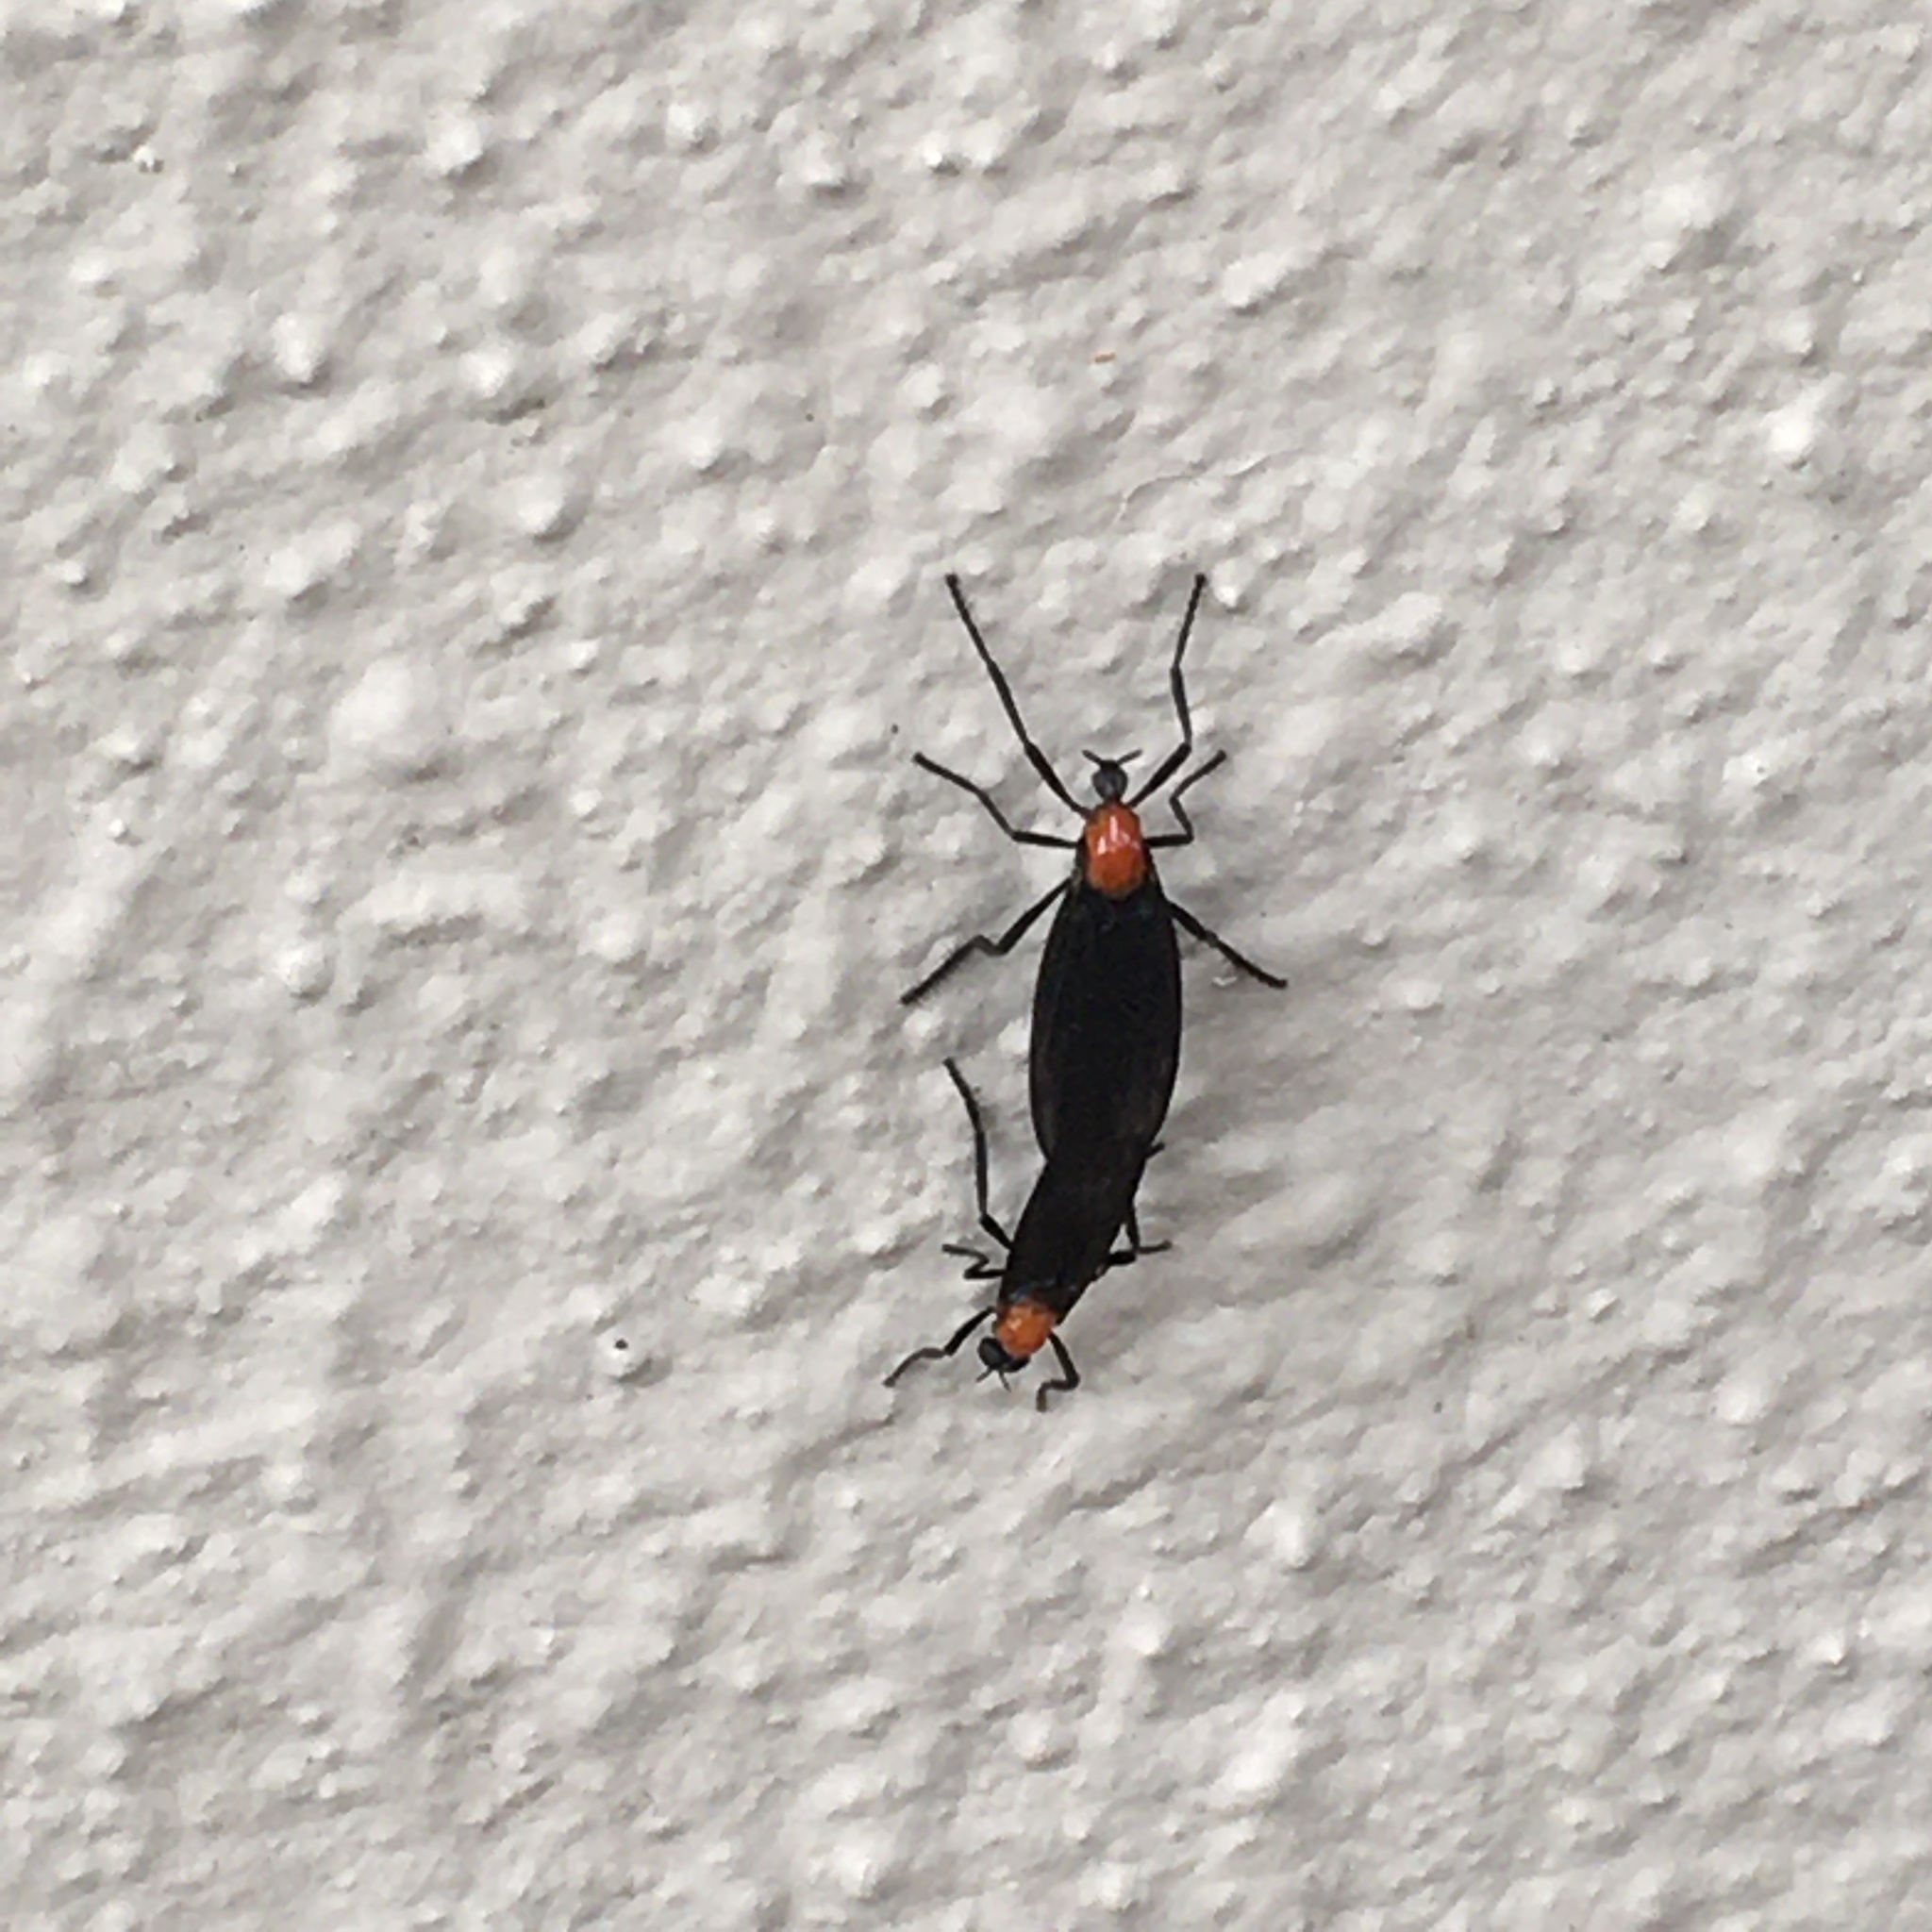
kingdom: Animalia
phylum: Arthropoda
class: Insecta
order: Diptera
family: Bibionidae
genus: Plecia
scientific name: Plecia nearctica
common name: March fly
